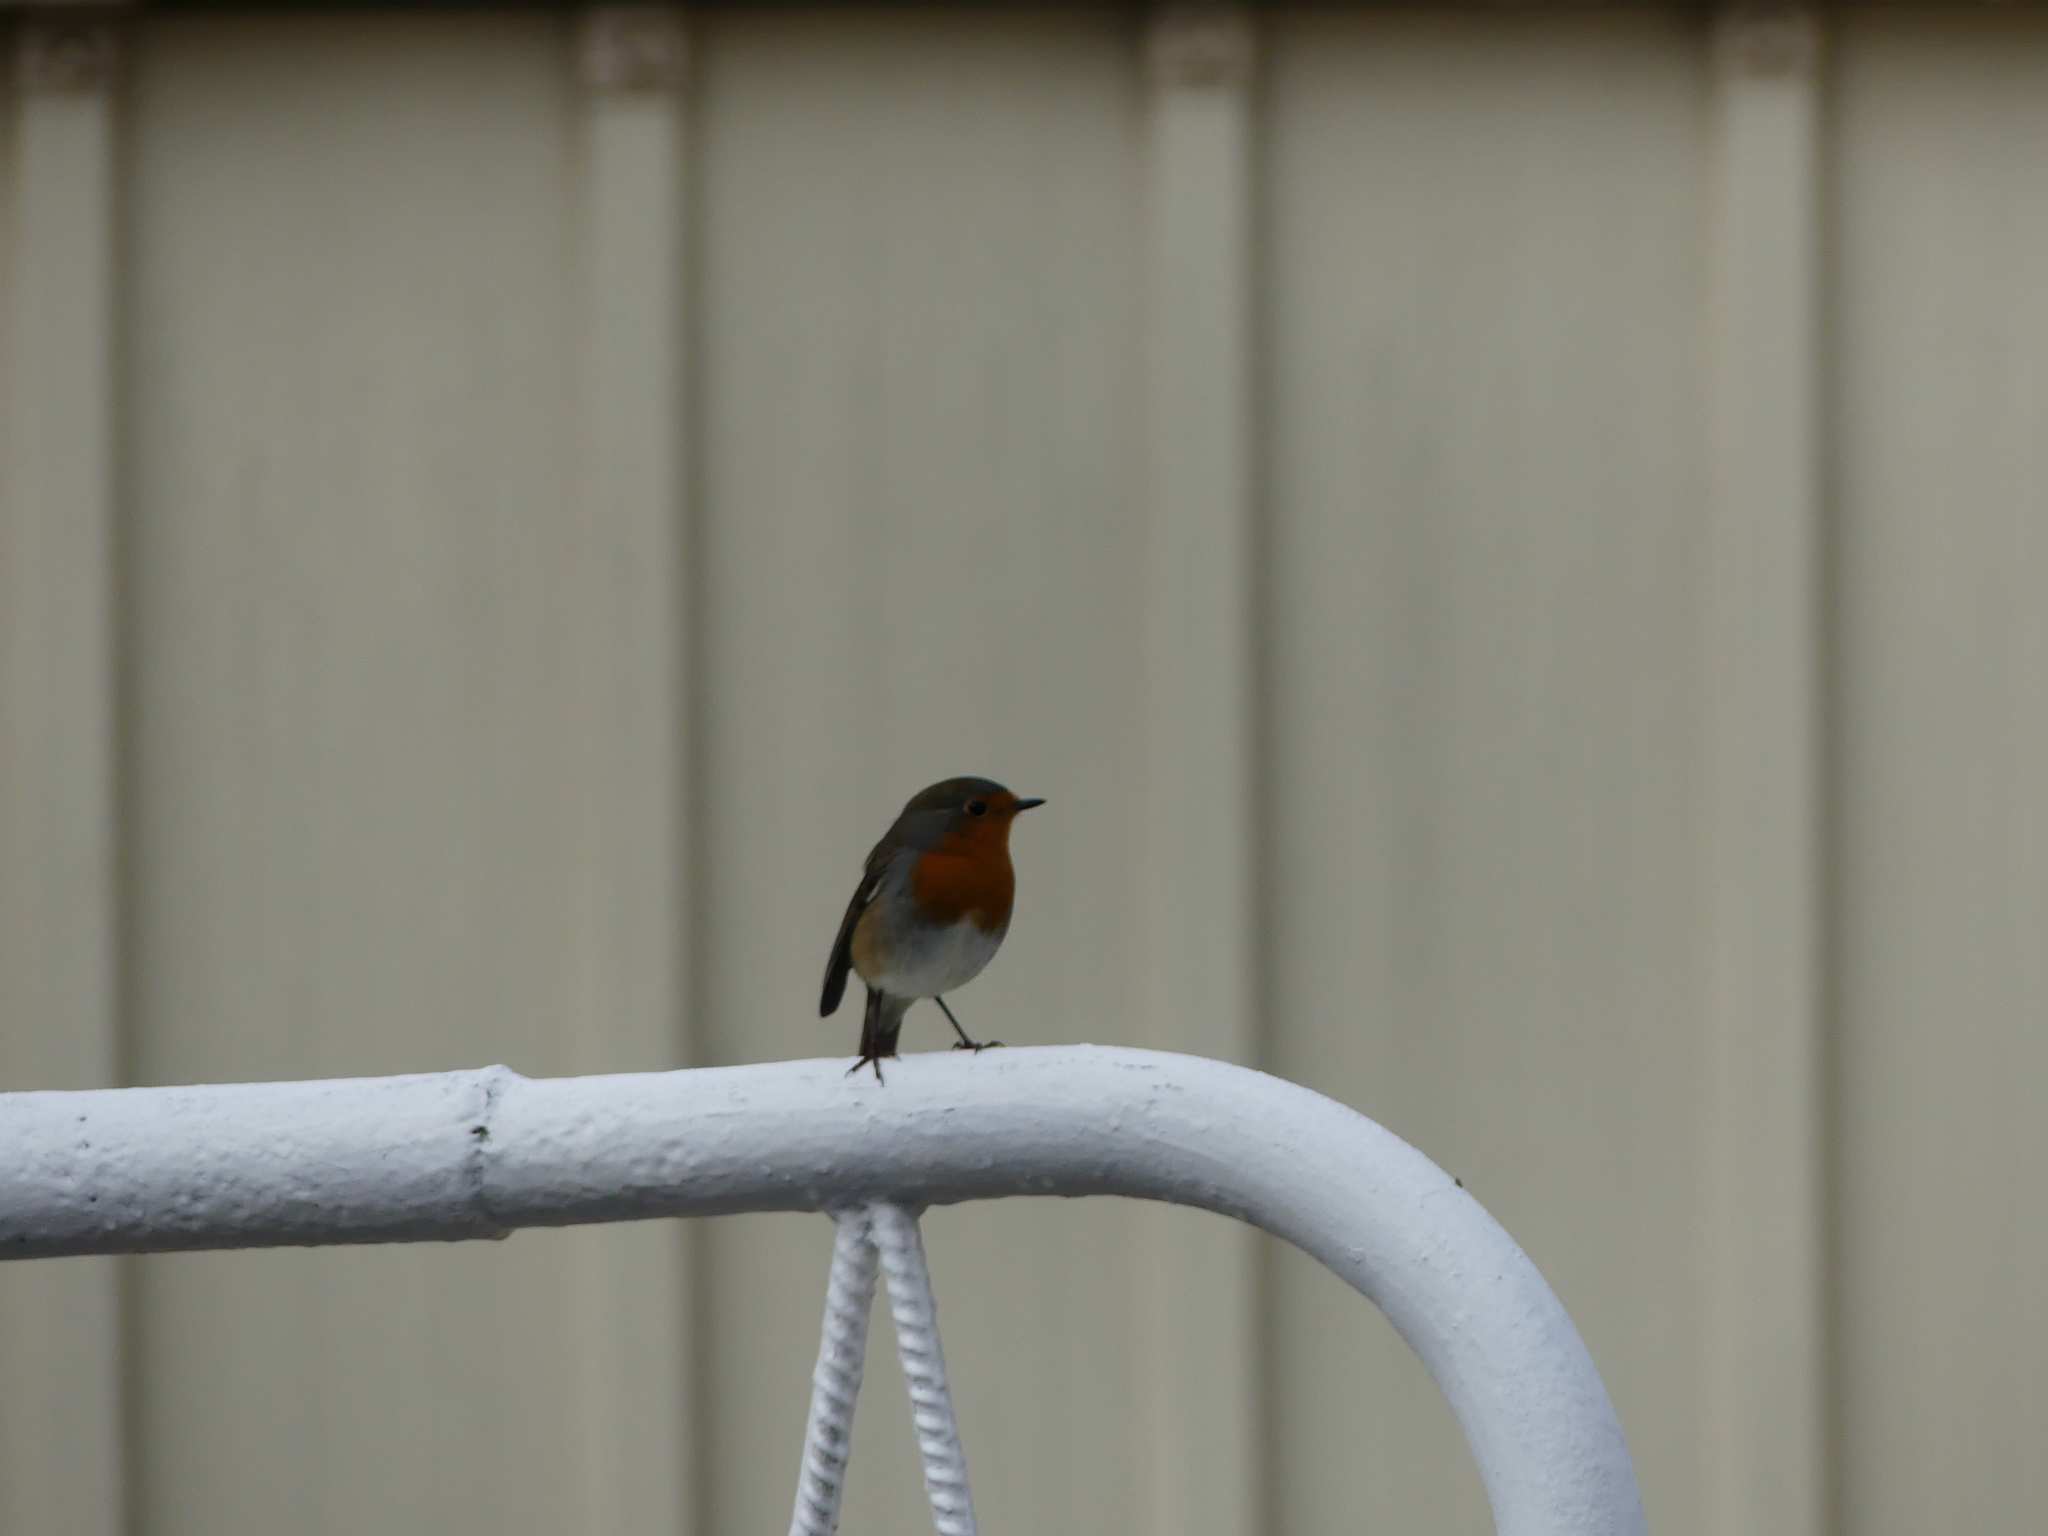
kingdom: Animalia
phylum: Chordata
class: Aves
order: Passeriformes
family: Muscicapidae
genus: Erithacus
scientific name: Erithacus rubecula
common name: European robin
